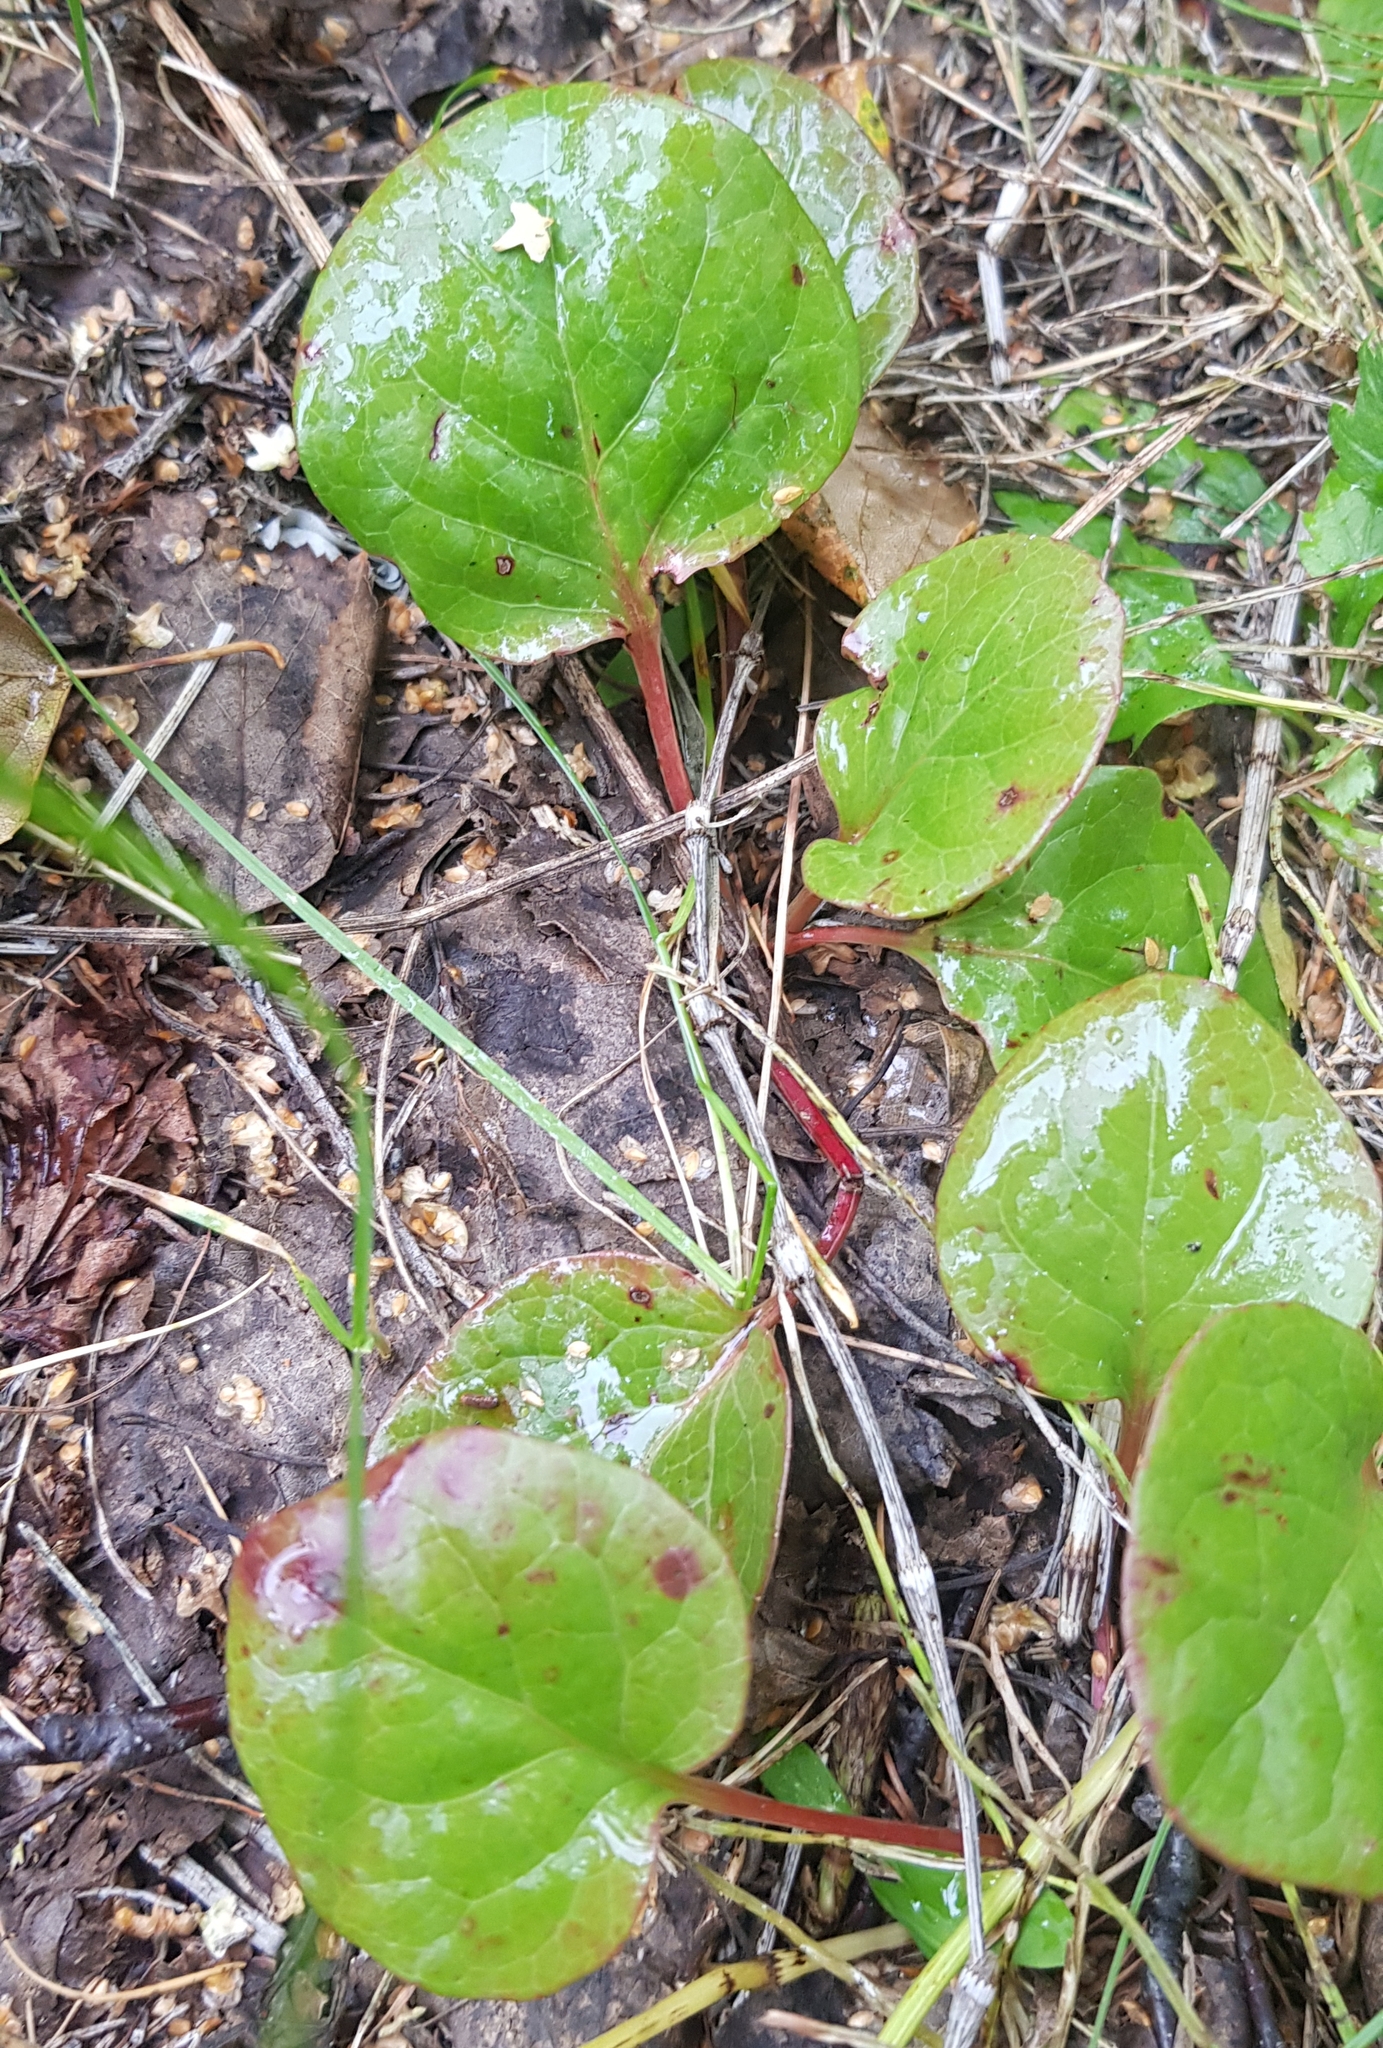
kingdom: Plantae
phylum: Tracheophyta
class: Magnoliopsida
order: Ericales
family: Ericaceae
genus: Pyrola
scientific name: Pyrola rotundifolia
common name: Round-leaved wintergreen
